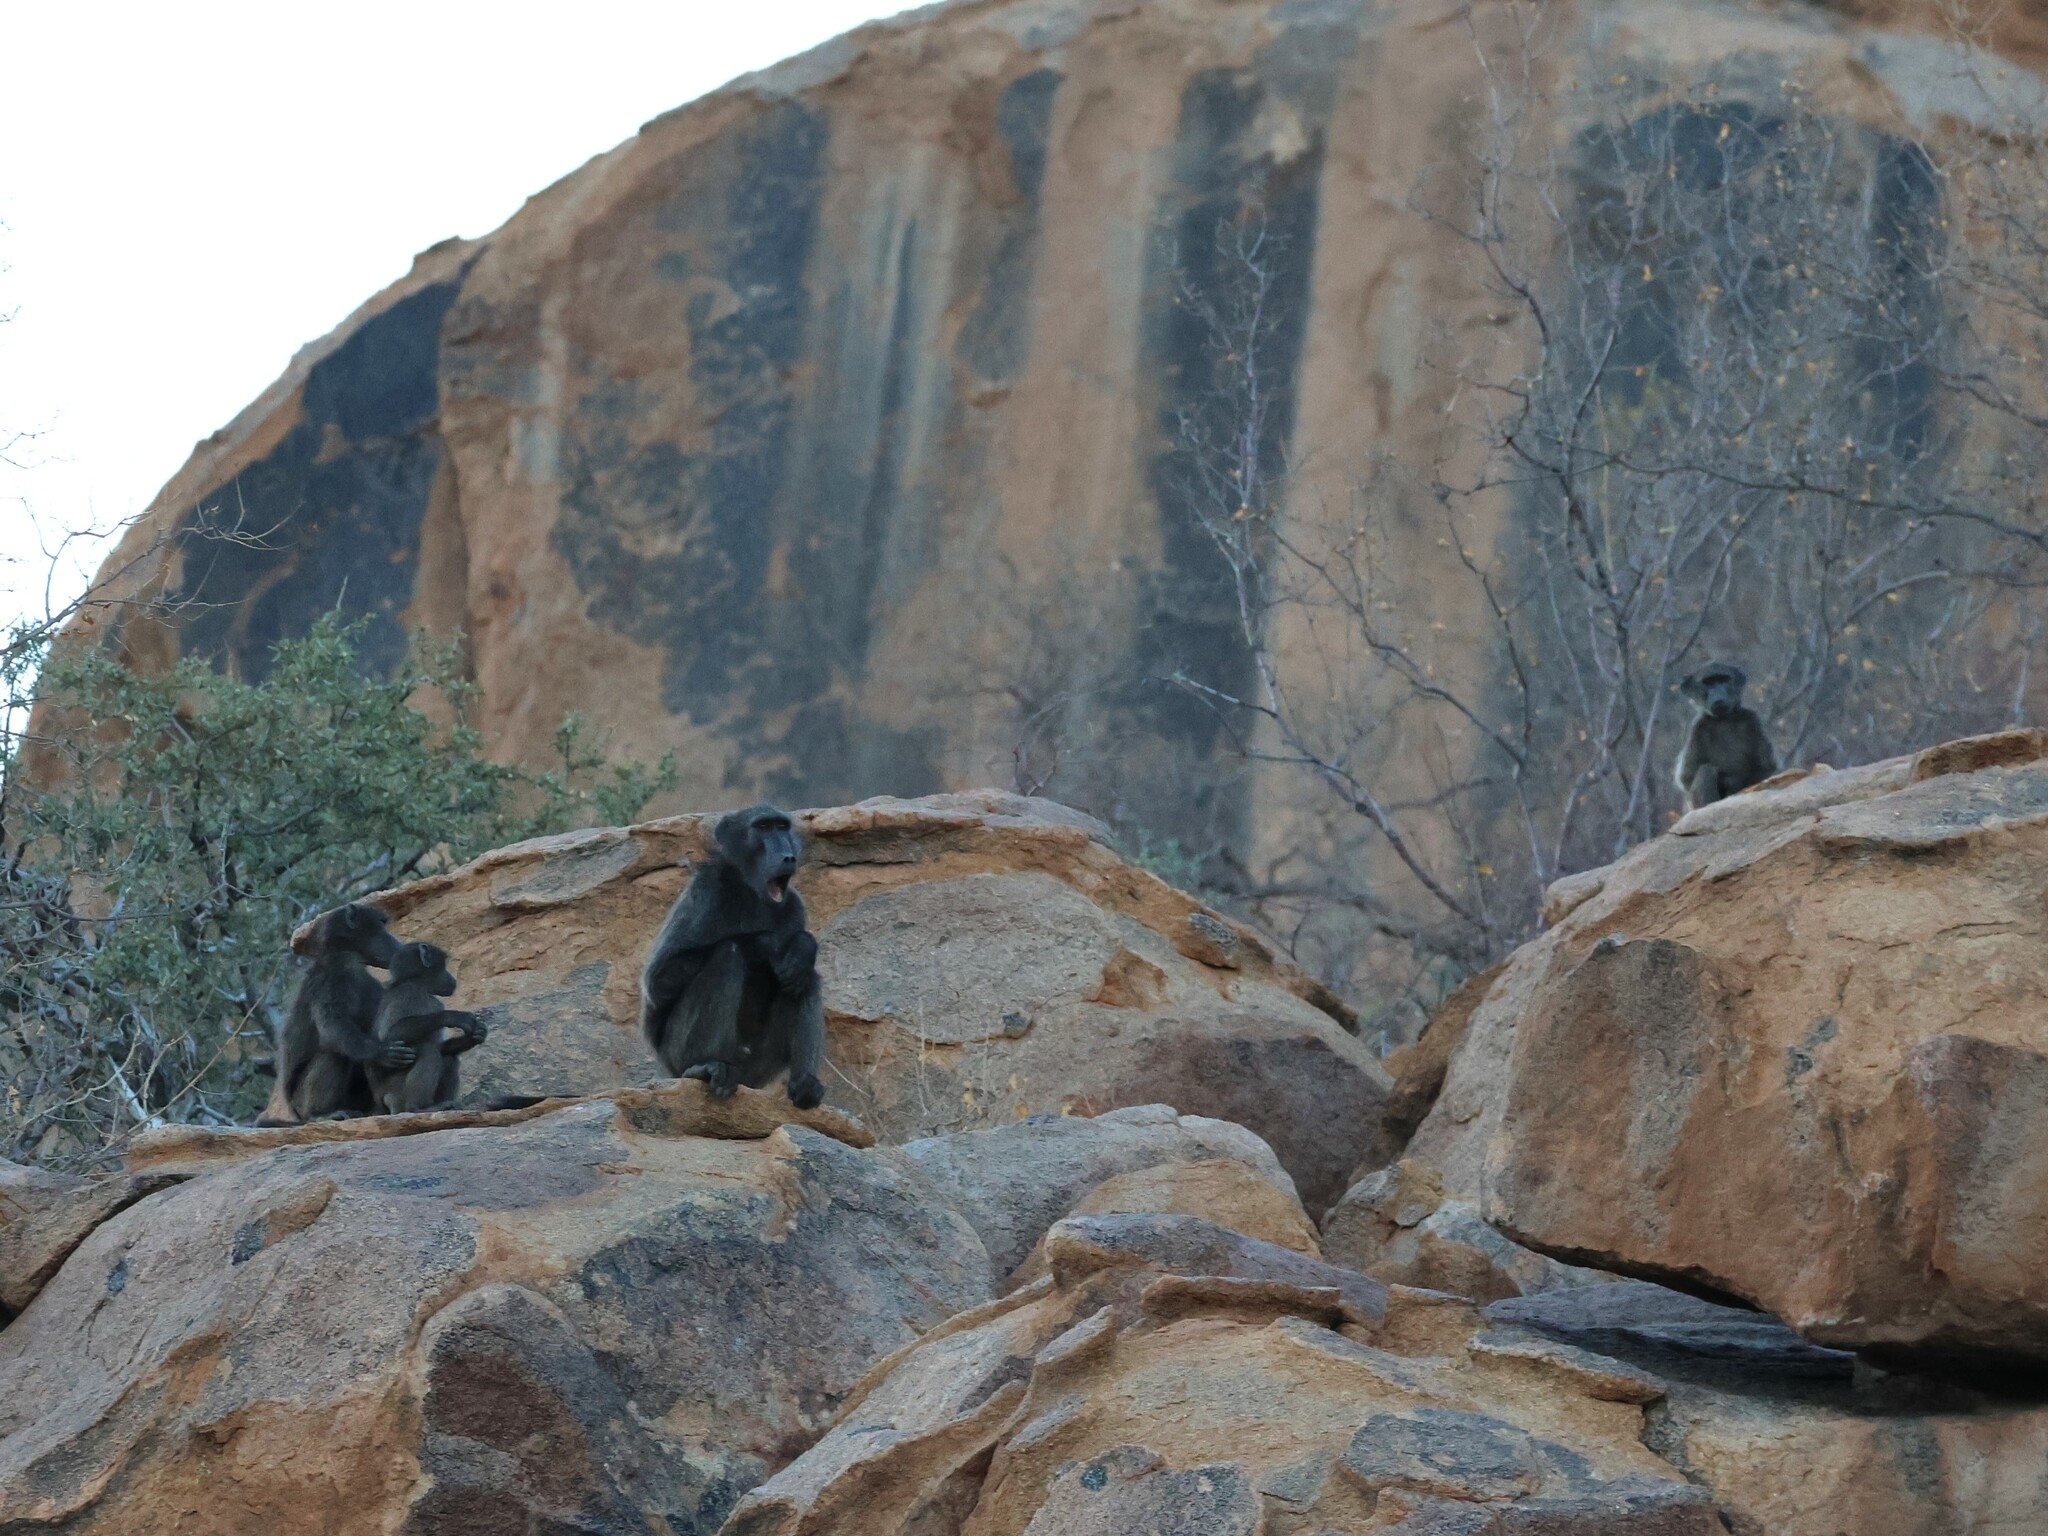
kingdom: Animalia
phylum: Chordata
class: Mammalia
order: Primates
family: Cercopithecidae
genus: Papio
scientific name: Papio ursinus
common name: Chacma baboon
